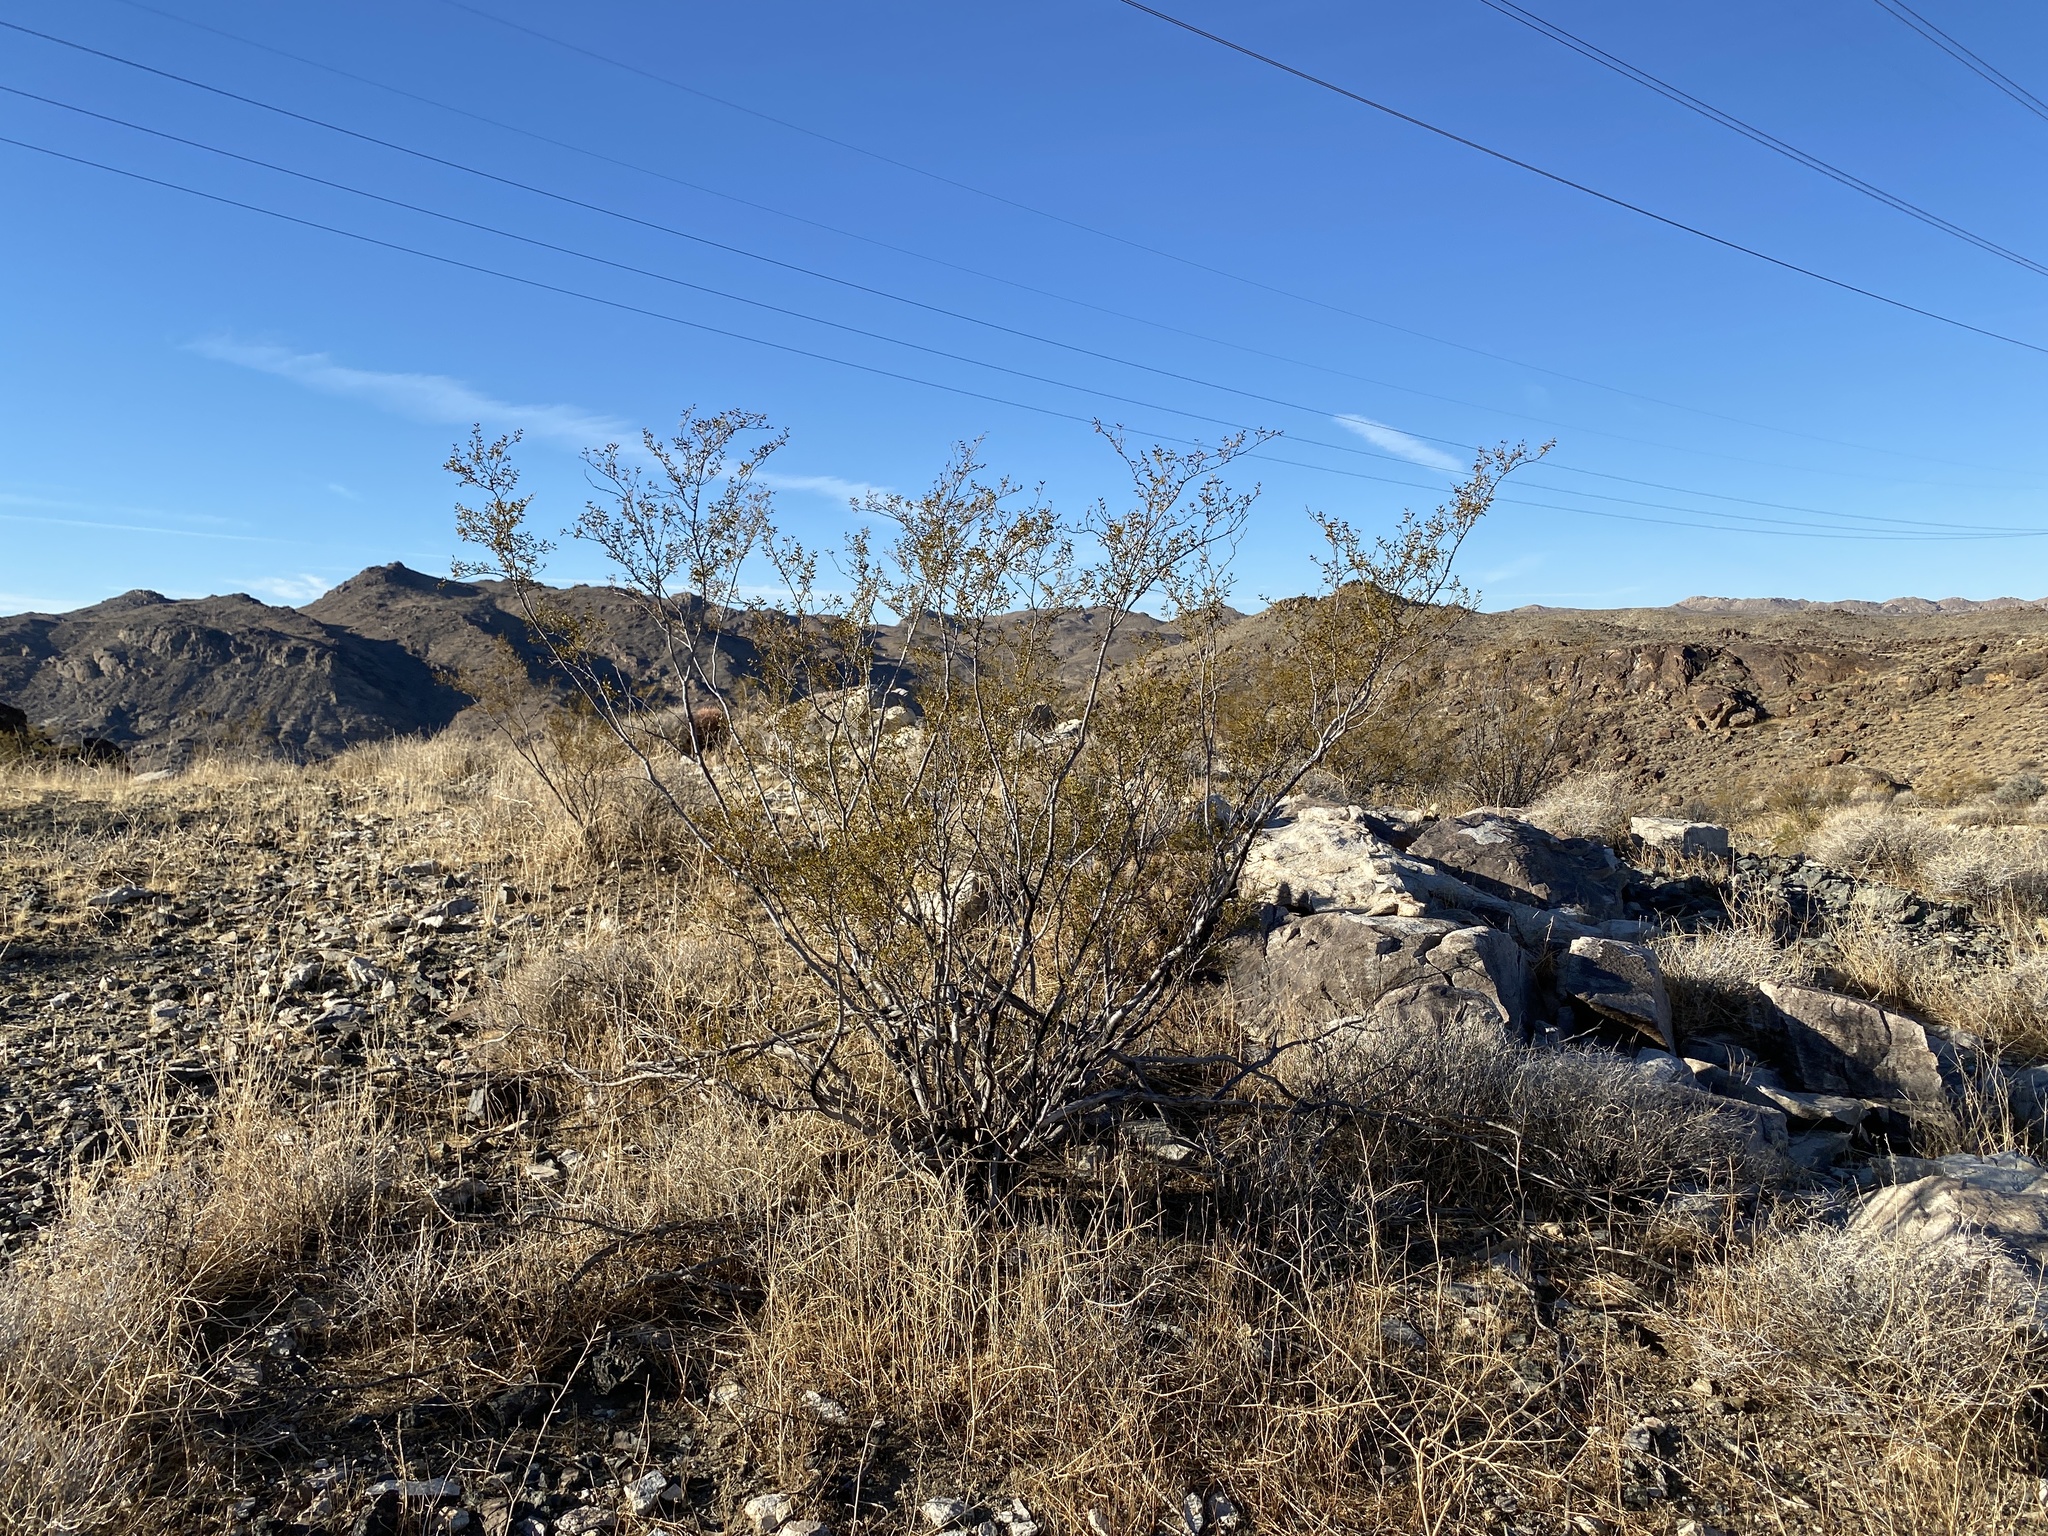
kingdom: Plantae
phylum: Tracheophyta
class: Magnoliopsida
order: Zygophyllales
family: Zygophyllaceae
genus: Larrea
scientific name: Larrea tridentata
